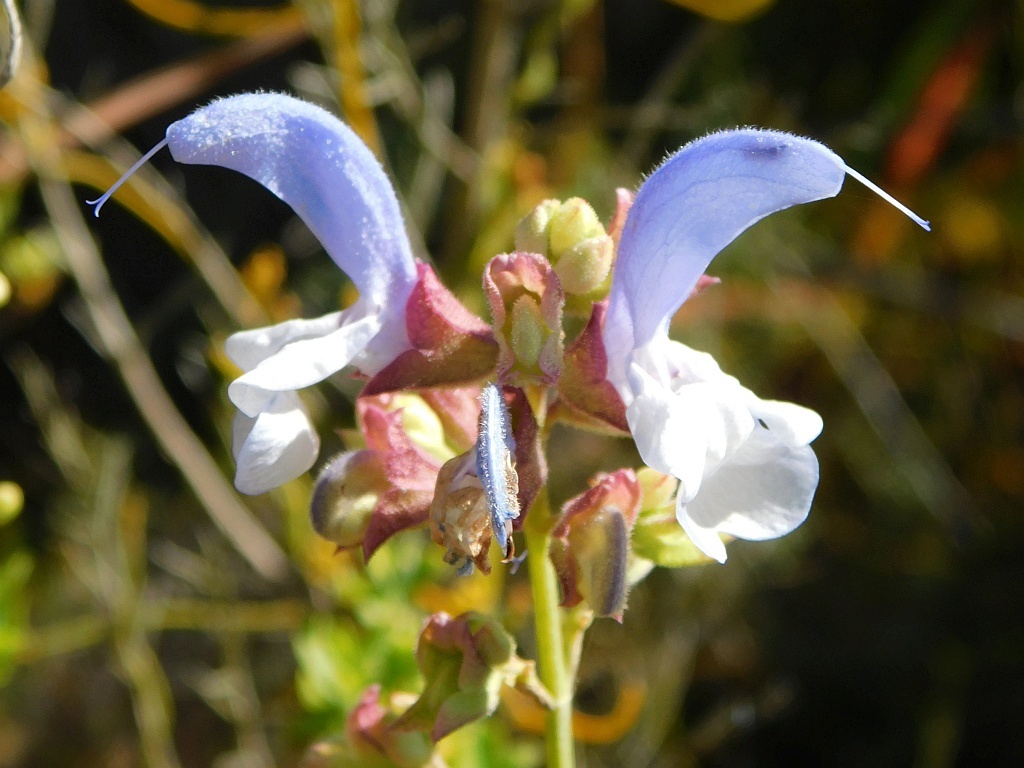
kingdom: Plantae
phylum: Tracheophyta
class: Magnoliopsida
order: Lamiales
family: Lamiaceae
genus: Salvia
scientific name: Salvia chamelaeagnea
